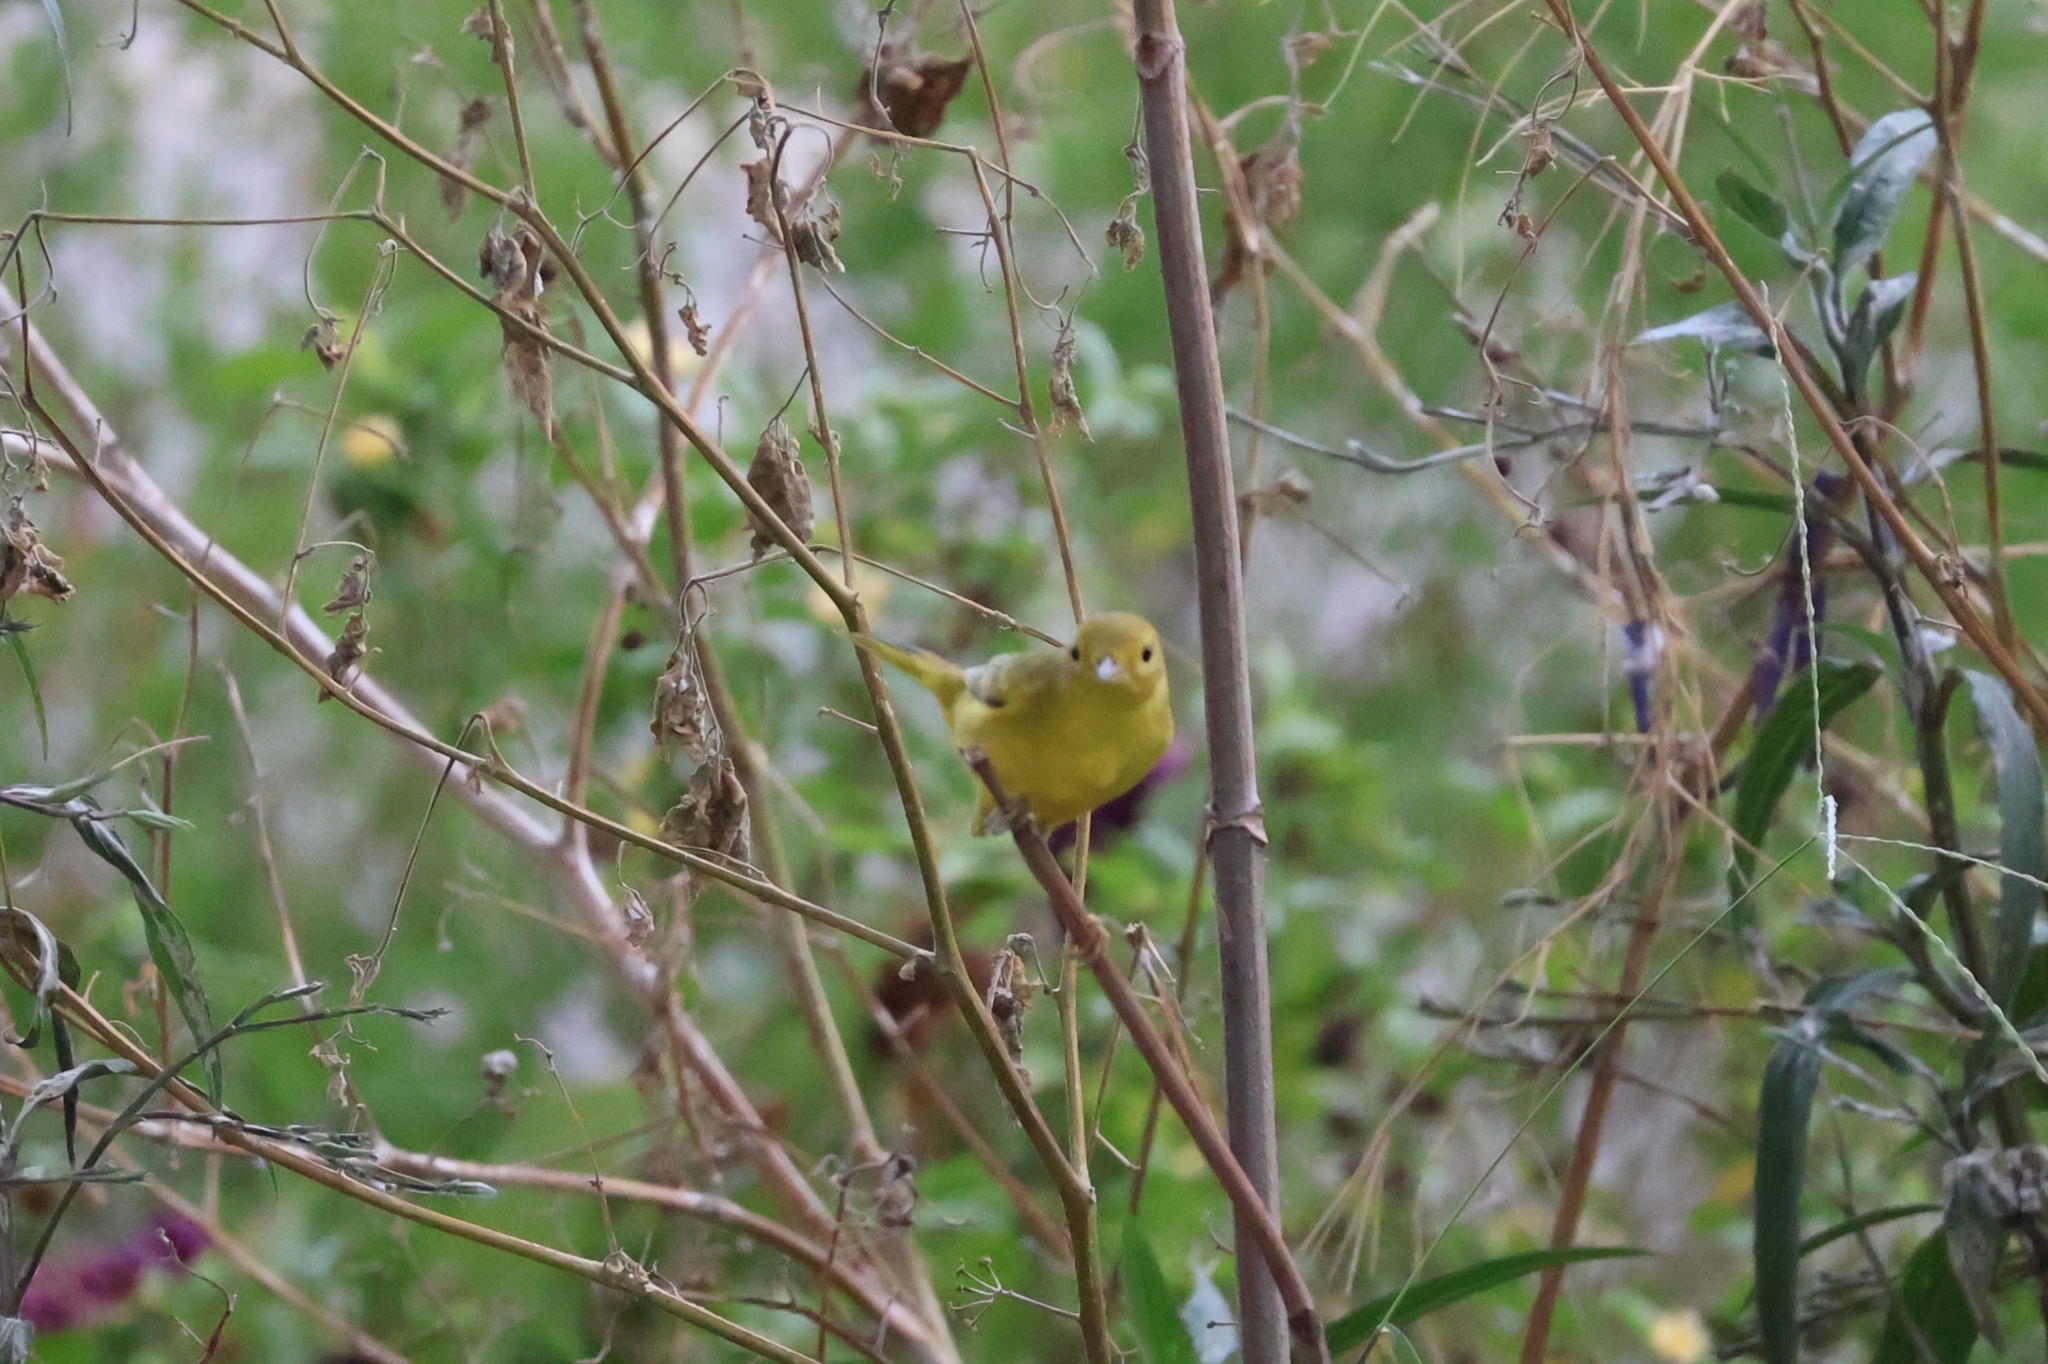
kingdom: Animalia
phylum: Chordata
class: Aves
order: Passeriformes
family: Parulidae
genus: Setophaga
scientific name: Setophaga petechia
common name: Yellow warbler
